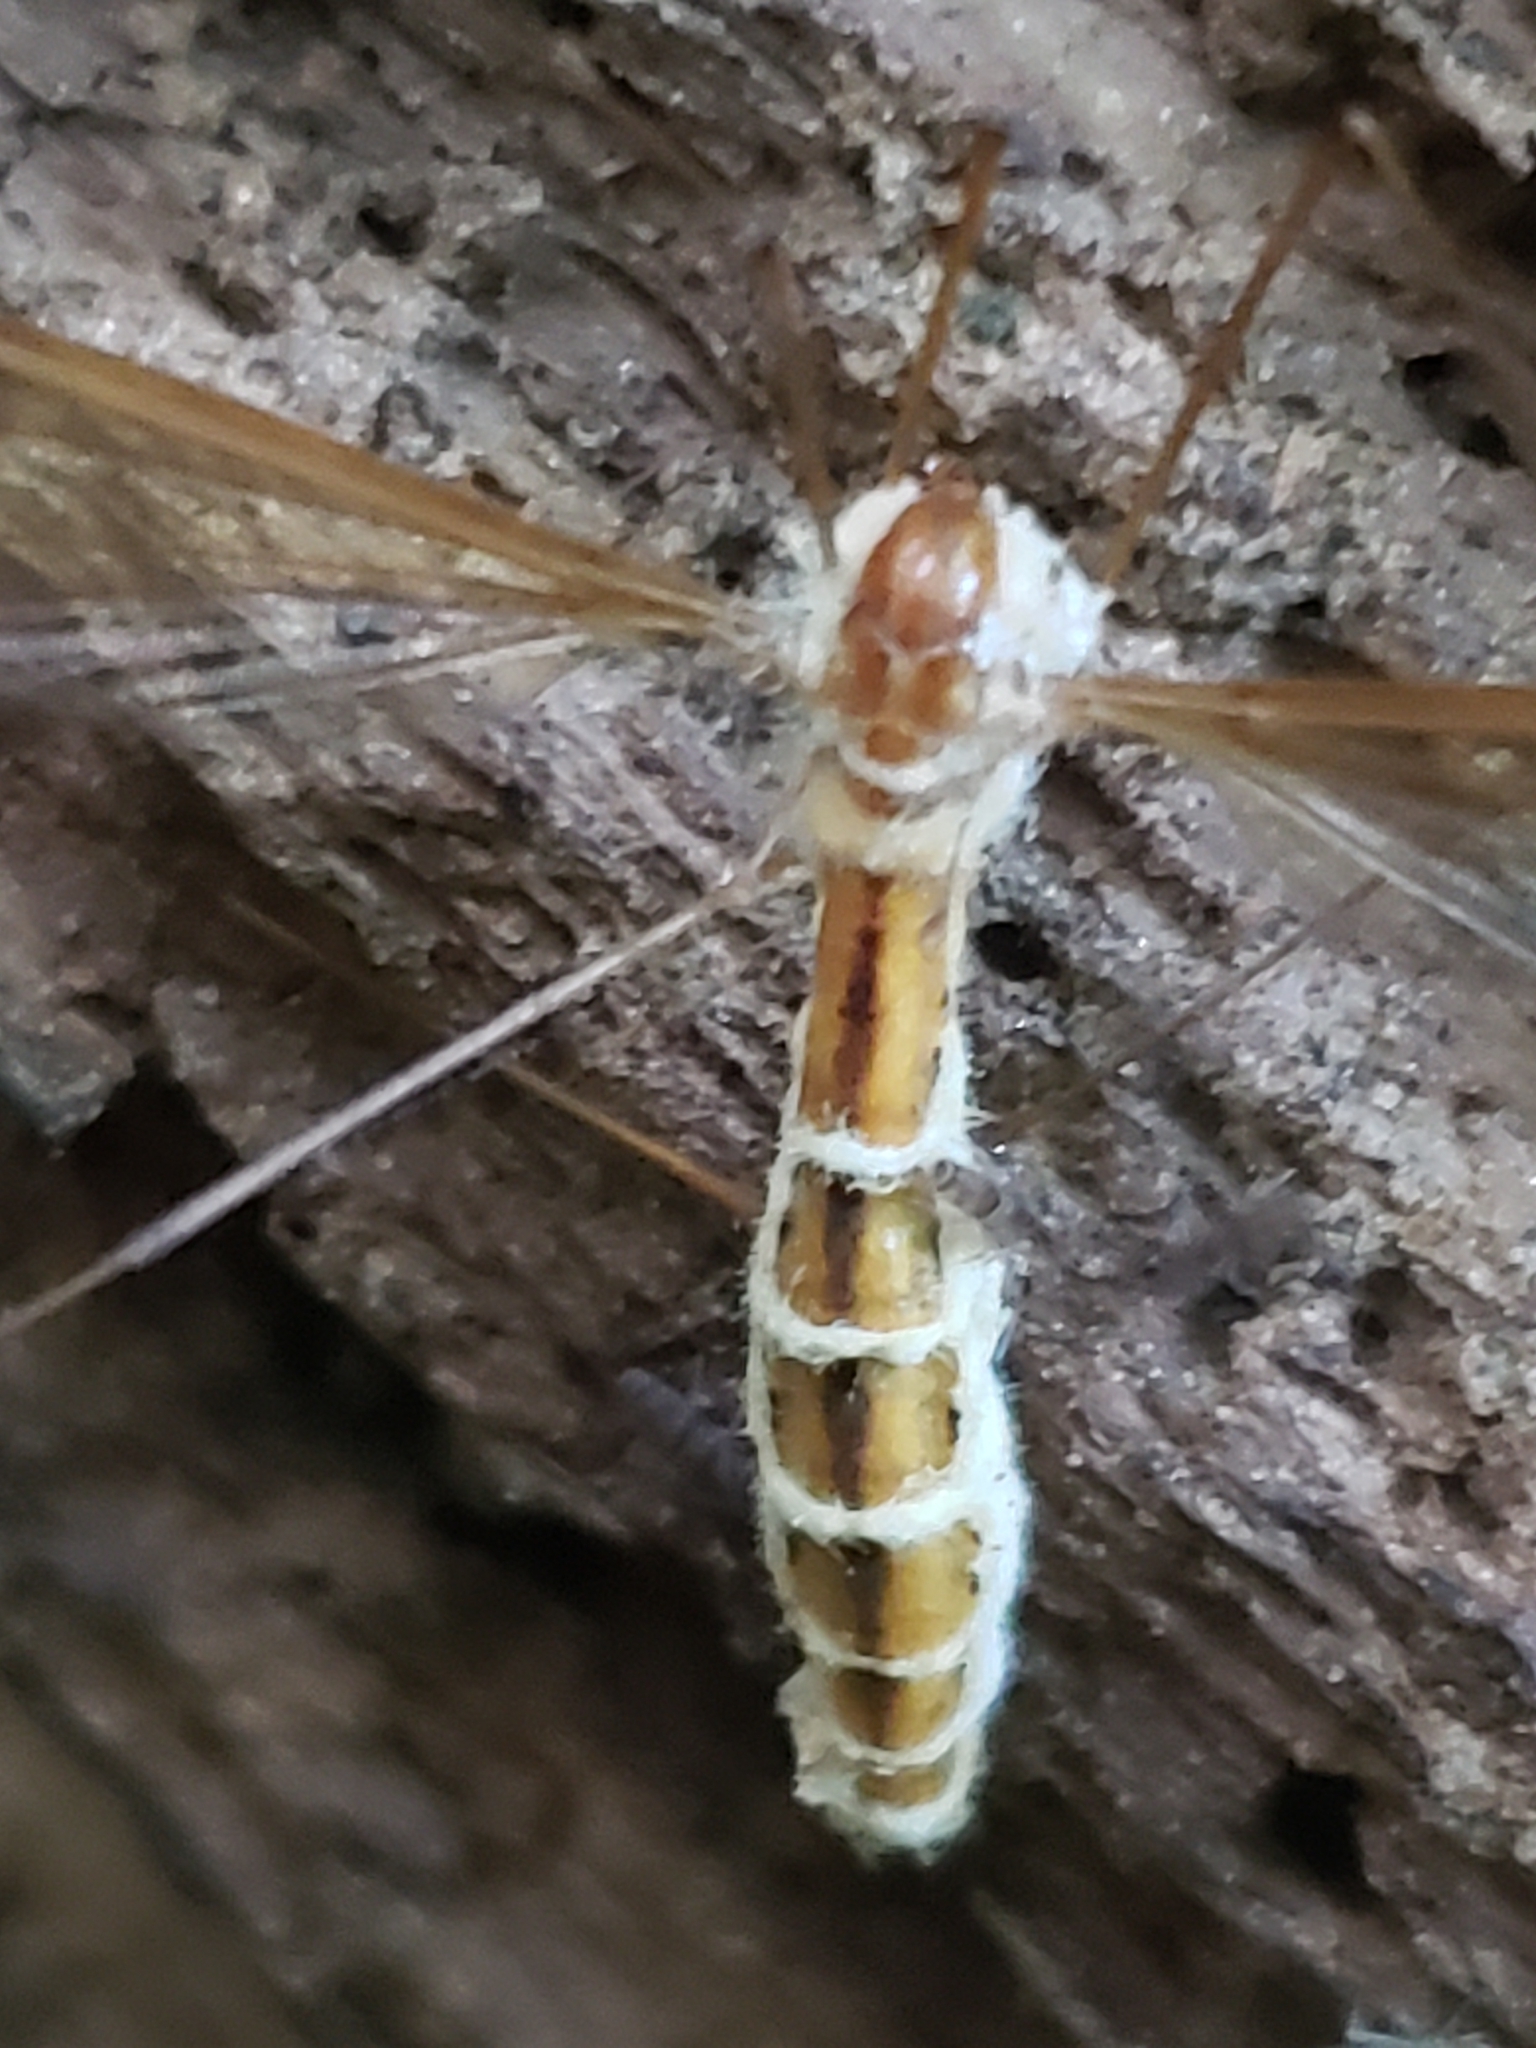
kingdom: Fungi
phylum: Entomophthoromycota
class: Entomophthoromycetes
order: Entomophthorales
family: Entomophthoraceae
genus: Erynia
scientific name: Erynia sepulchralis
